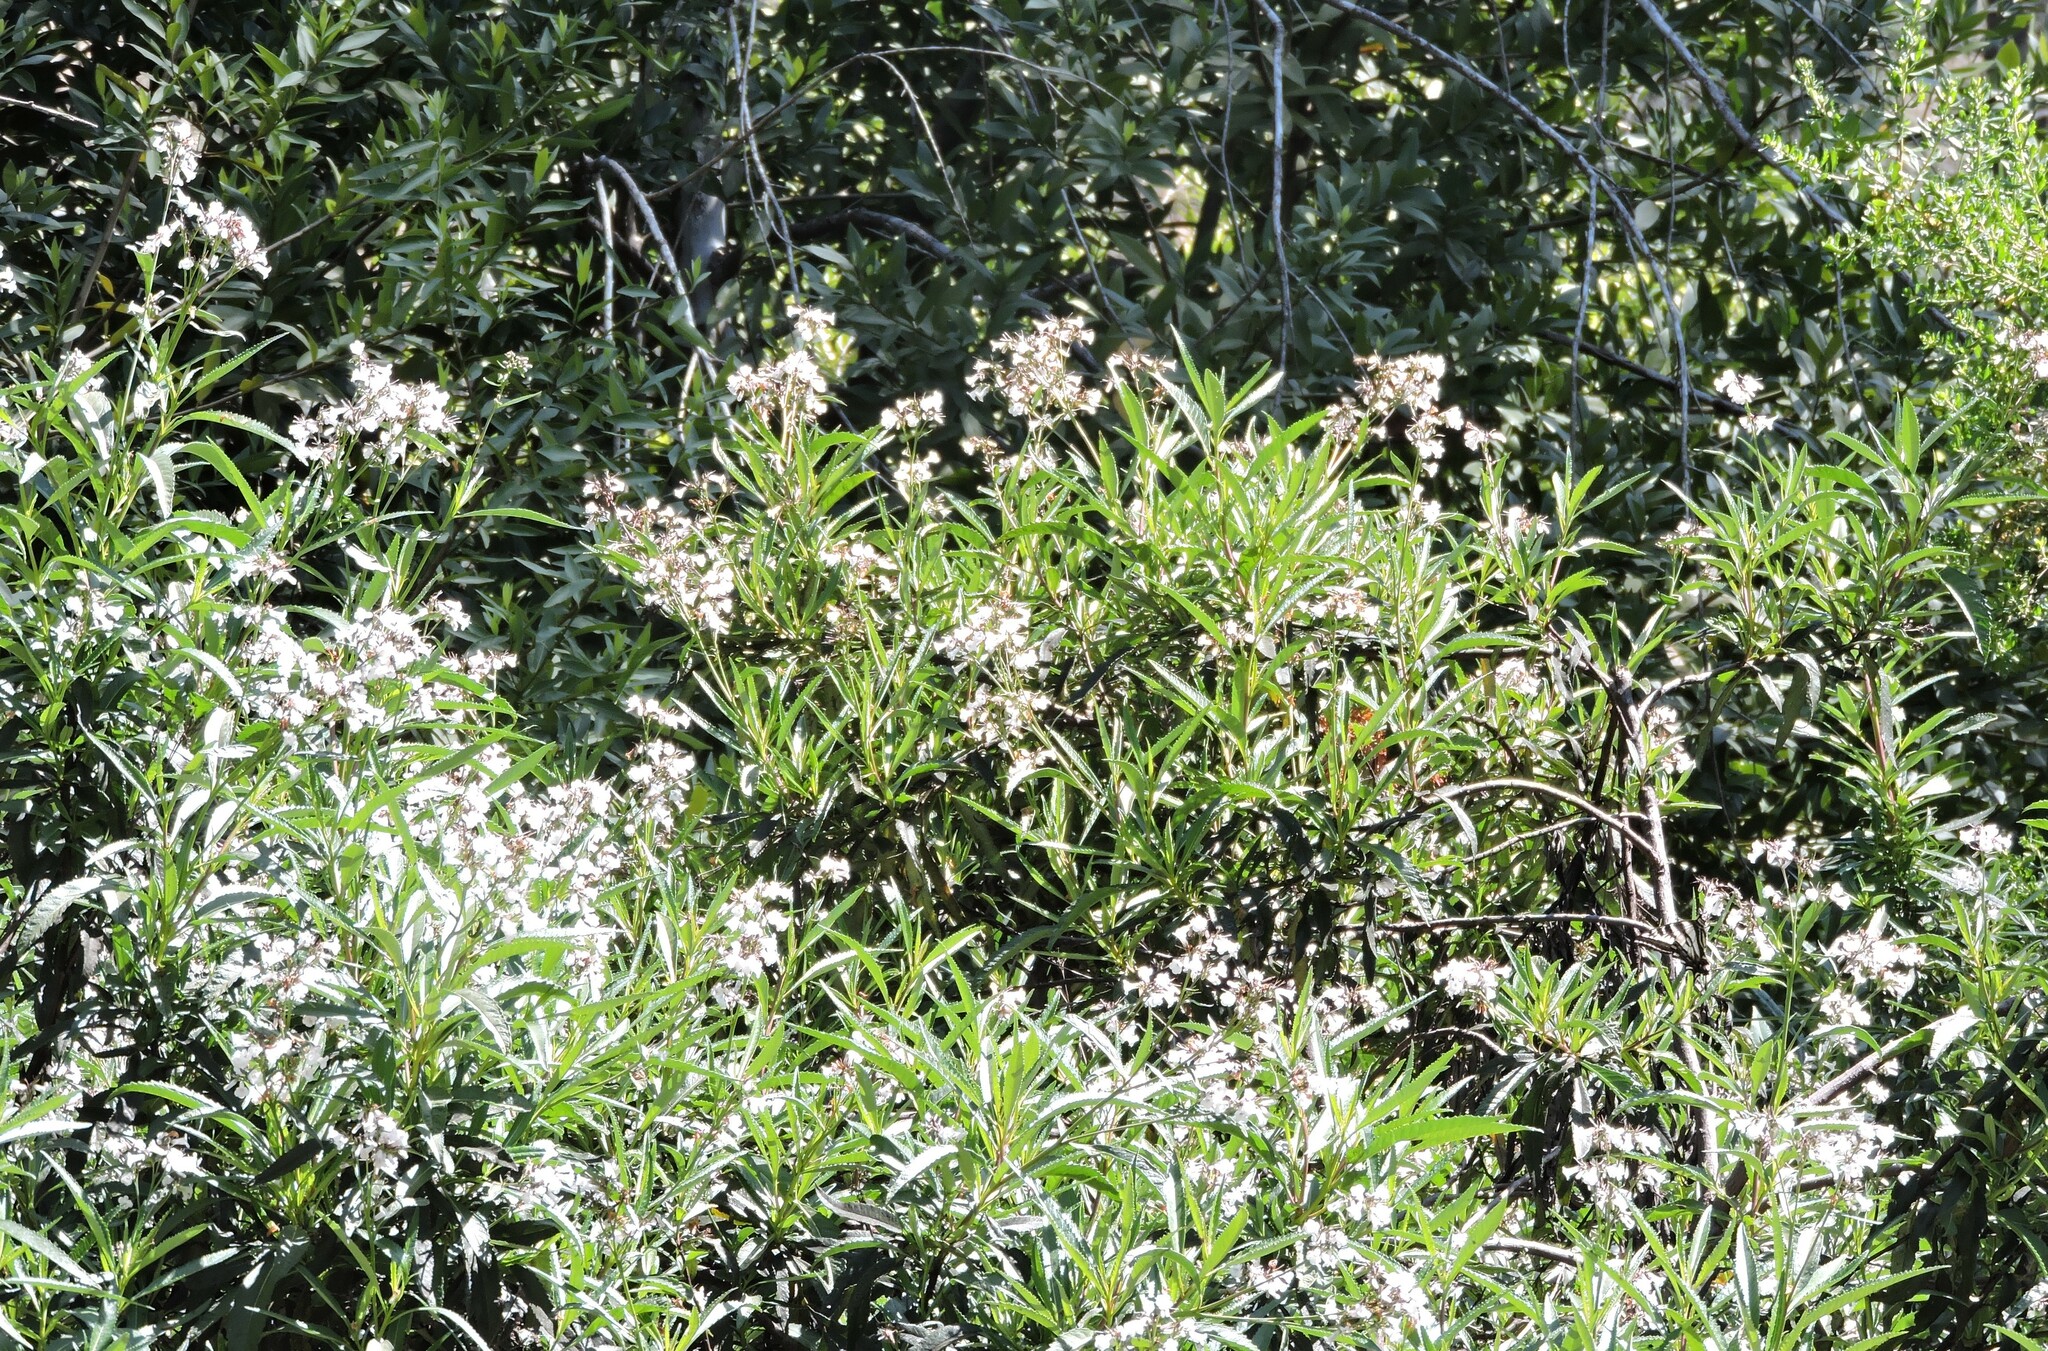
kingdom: Plantae
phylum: Tracheophyta
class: Magnoliopsida
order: Boraginales
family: Namaceae
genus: Eriodictyon
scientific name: Eriodictyon californicum
